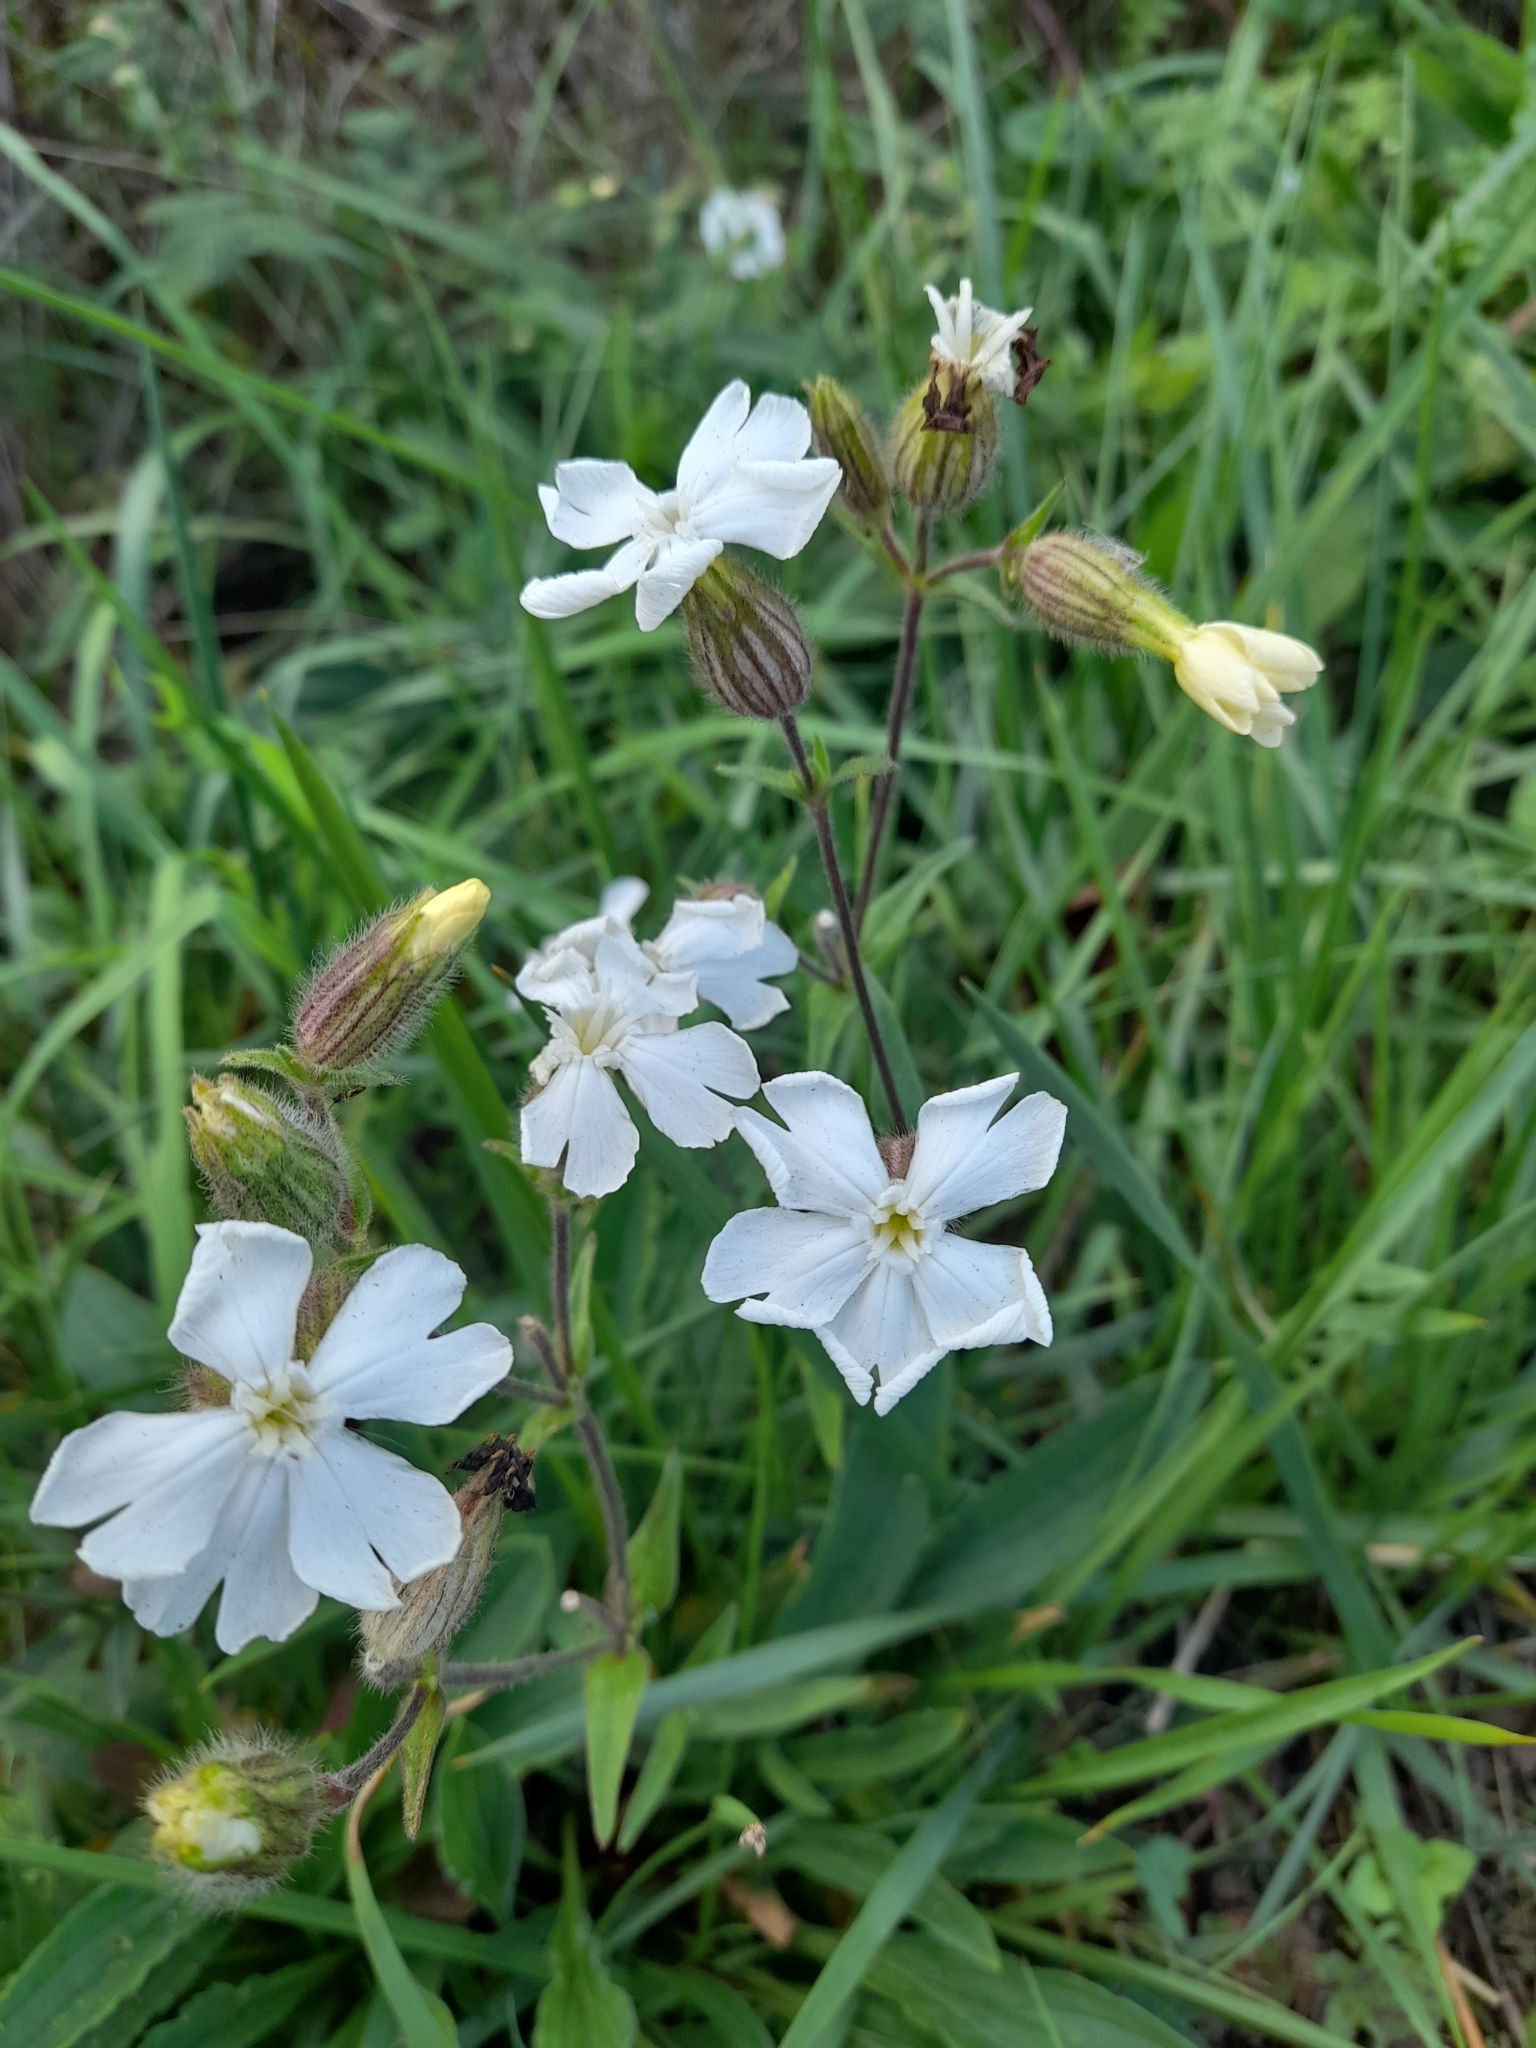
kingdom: Plantae
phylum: Tracheophyta
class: Magnoliopsida
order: Caryophyllales
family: Caryophyllaceae
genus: Silene
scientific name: Silene latifolia
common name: White campion
